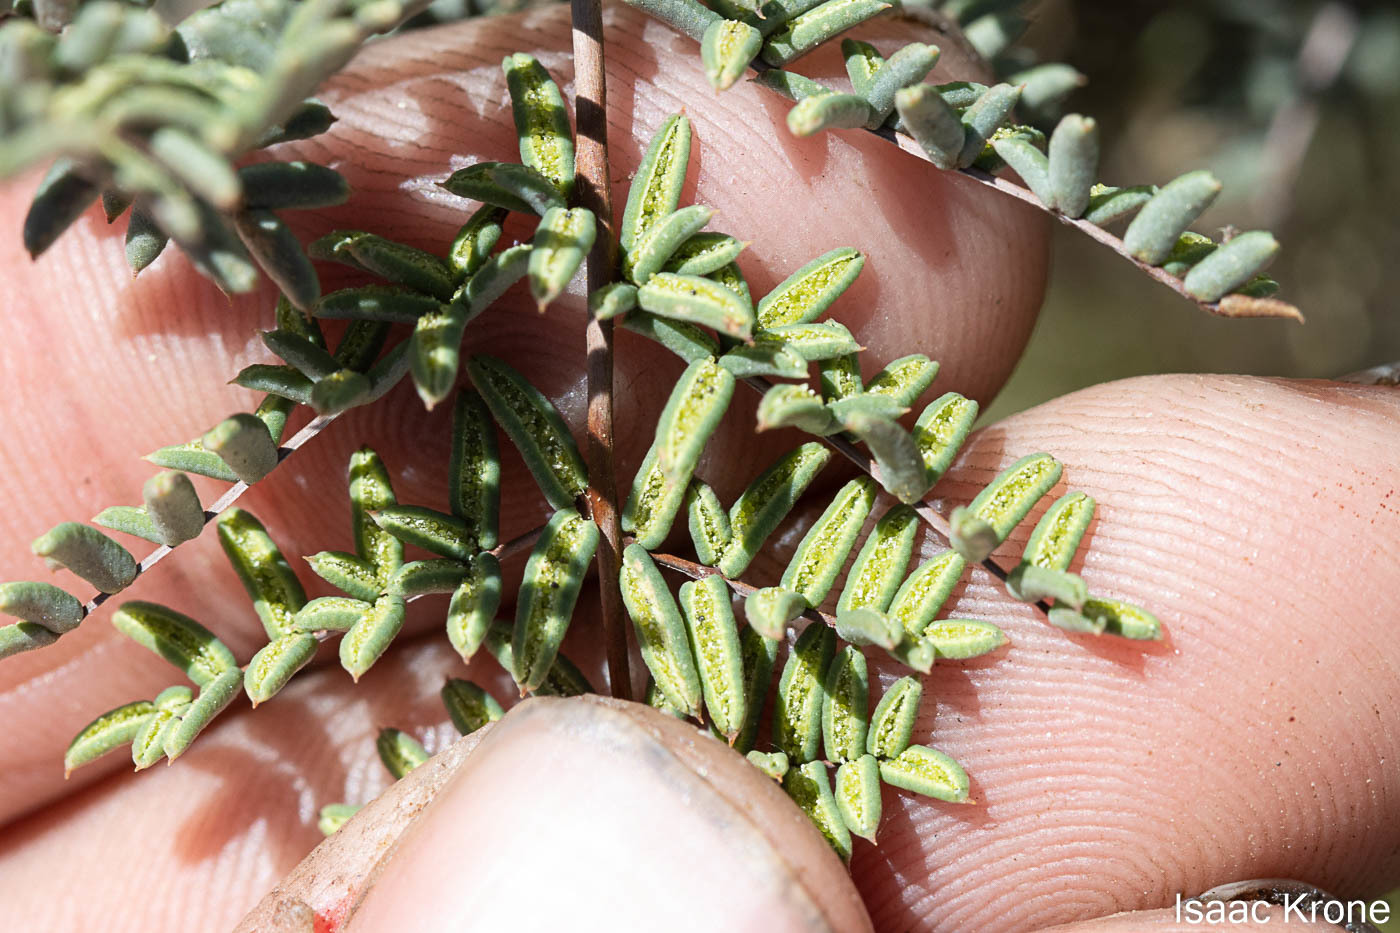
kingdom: Plantae
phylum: Tracheophyta
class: Polypodiopsida
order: Polypodiales
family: Pteridaceae
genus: Pellaea
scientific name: Pellaea mucronata
